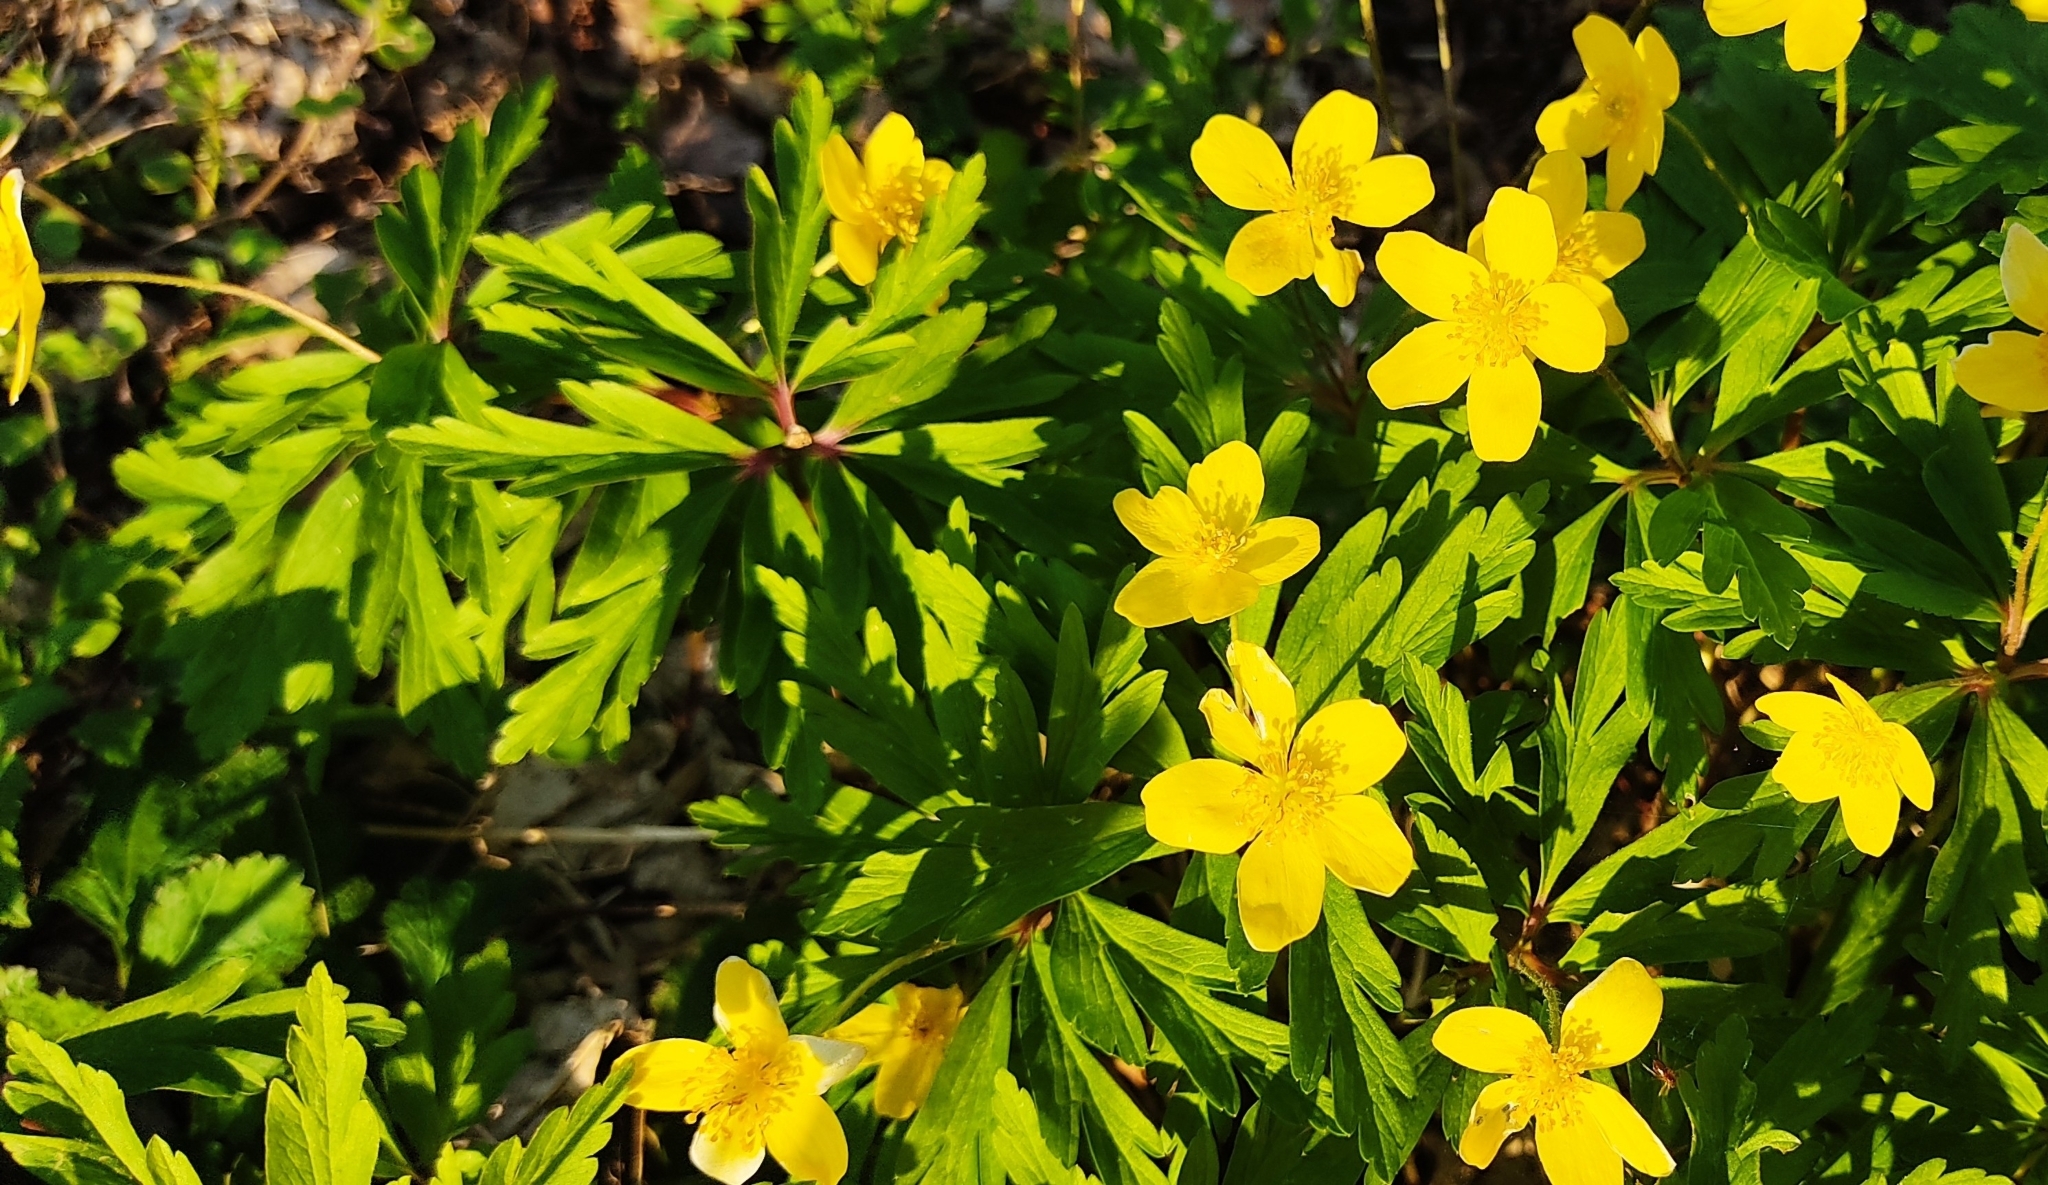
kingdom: Plantae
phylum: Tracheophyta
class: Magnoliopsida
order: Ranunculales
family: Ranunculaceae
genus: Anemone
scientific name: Anemone ranunculoides
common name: Yellow anemone
